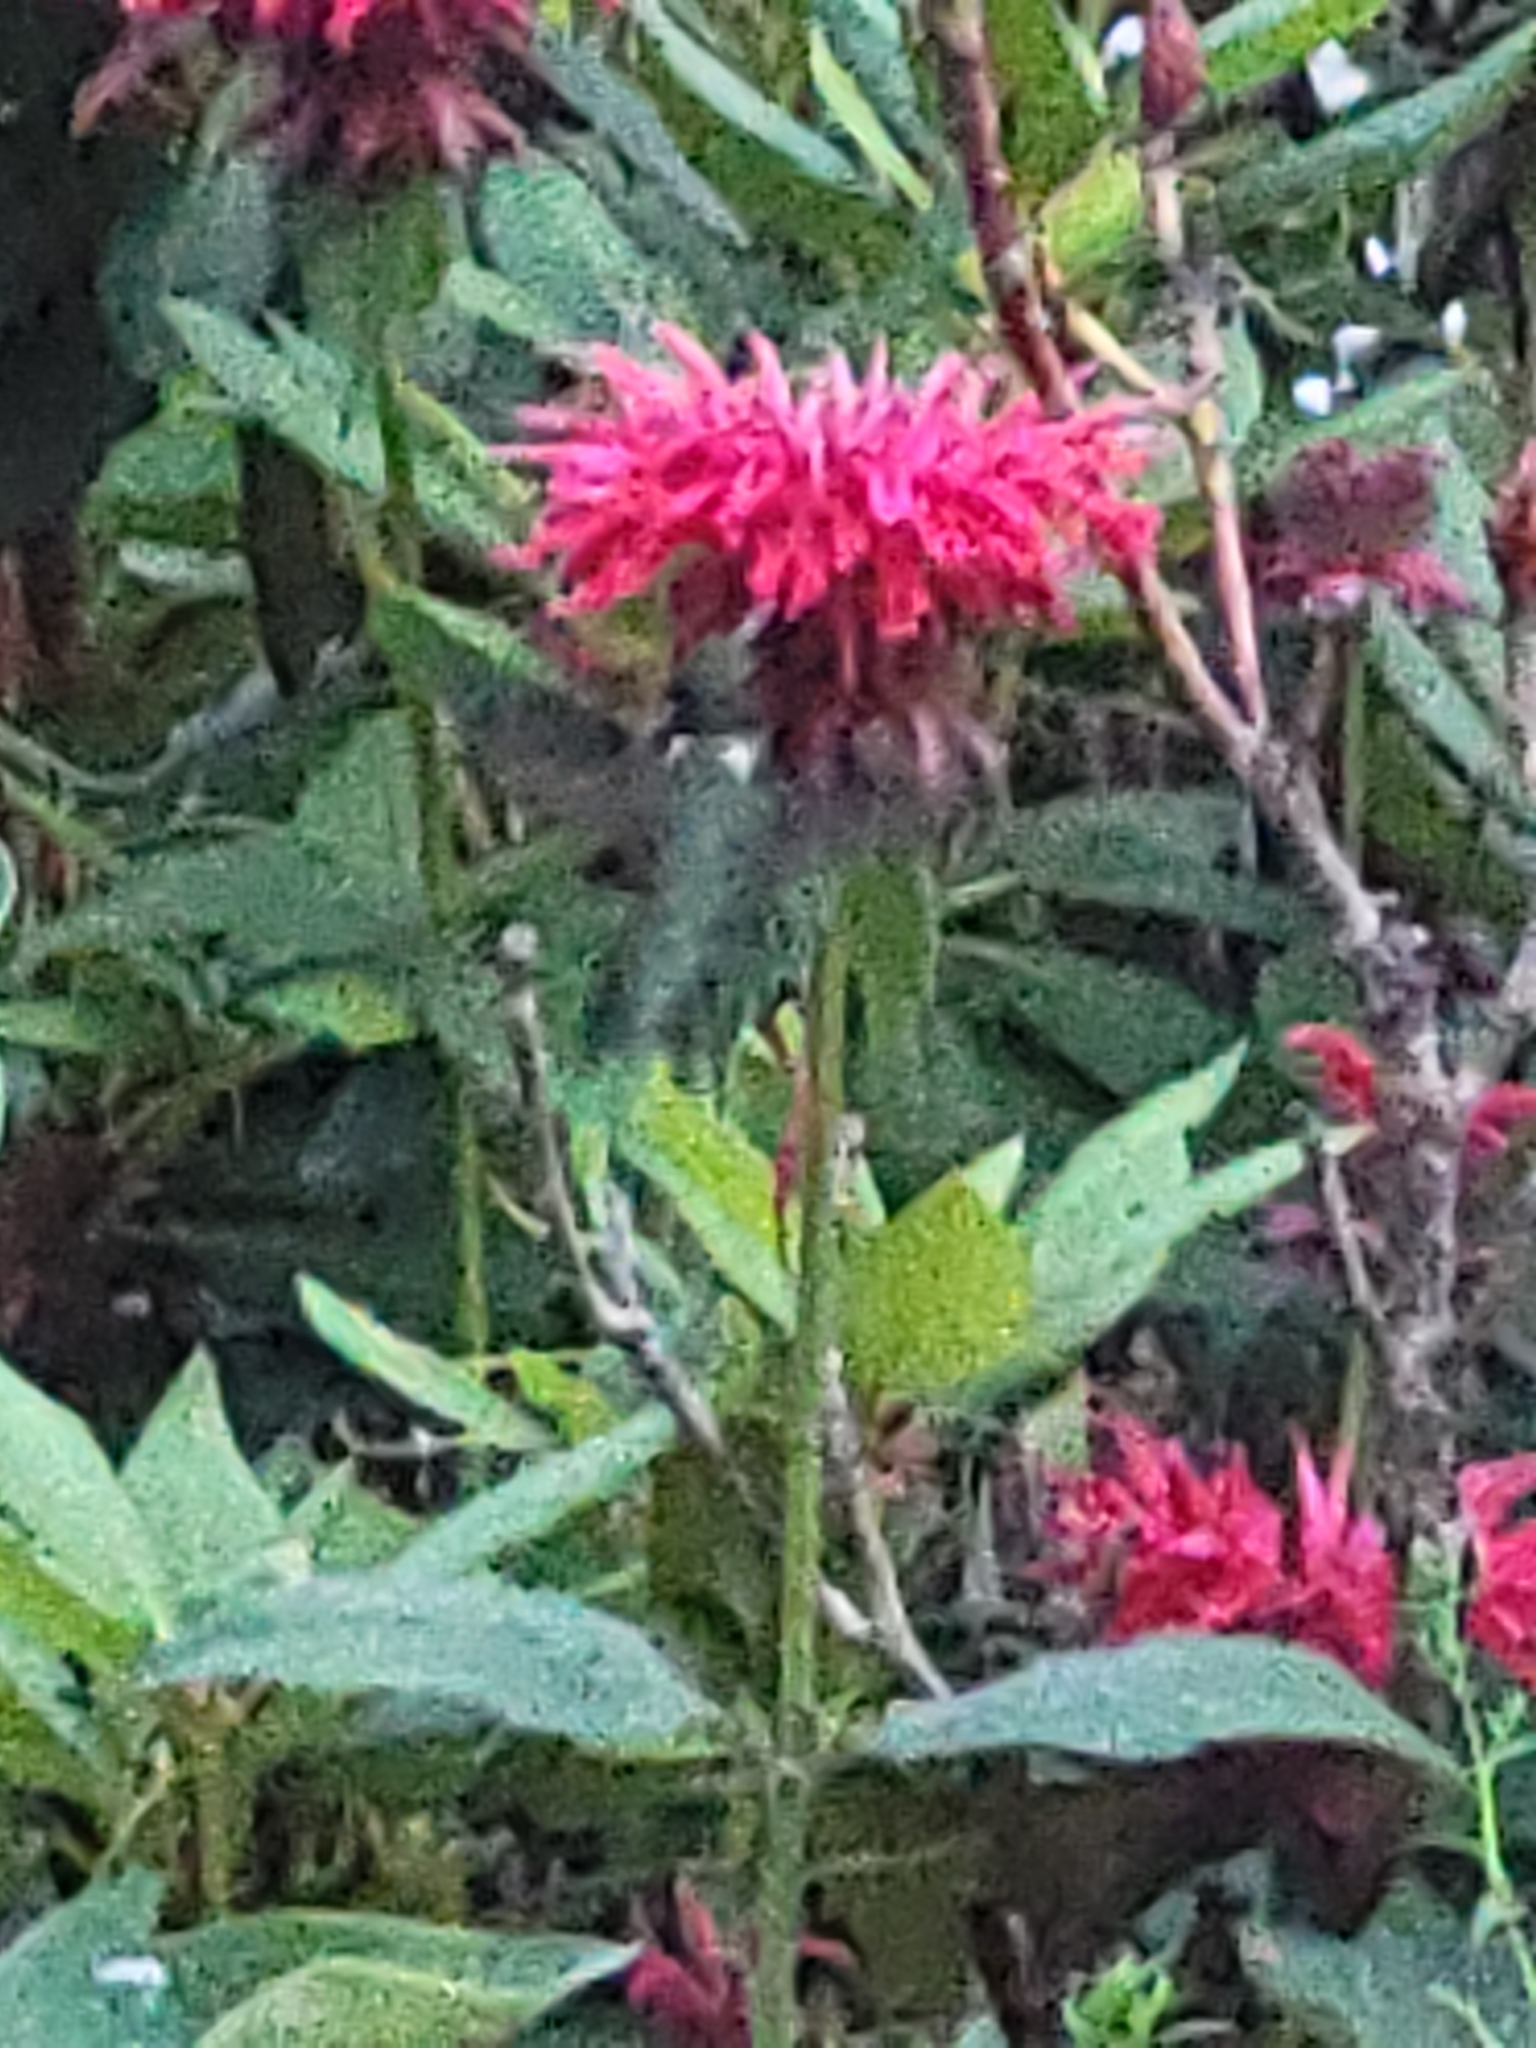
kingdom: Animalia
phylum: Chordata
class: Aves
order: Apodiformes
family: Trochilidae
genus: Archilochus
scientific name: Archilochus colubris
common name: Ruby-throated hummingbird
